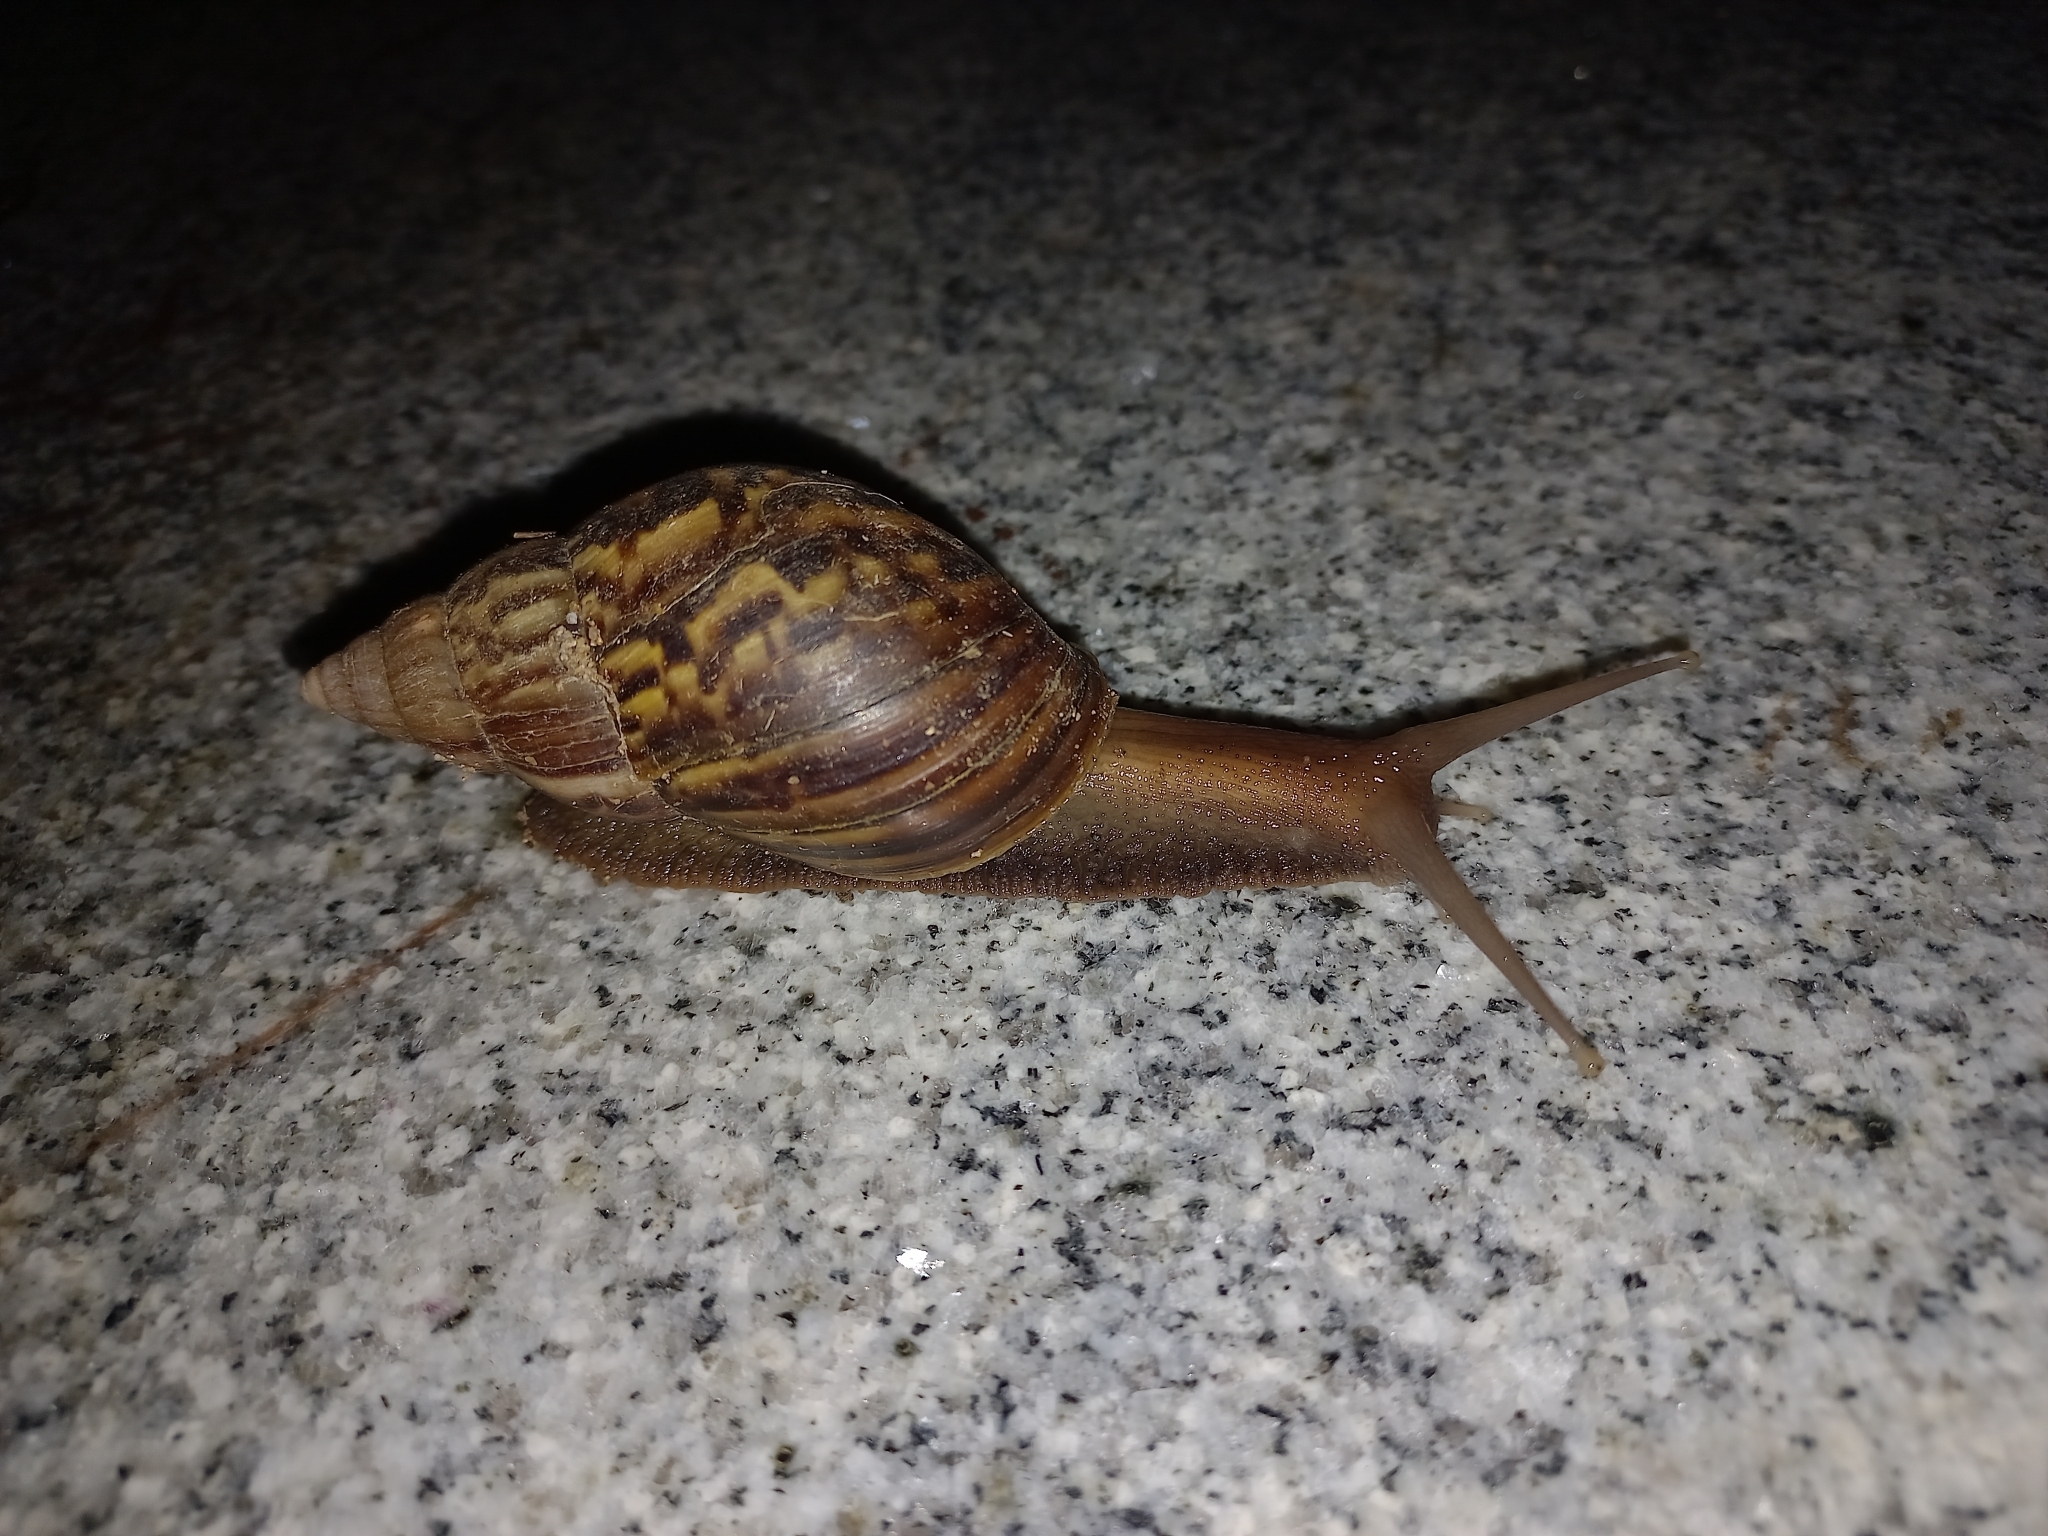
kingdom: Animalia
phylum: Mollusca
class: Gastropoda
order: Stylommatophora
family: Achatinidae
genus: Lissachatina
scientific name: Lissachatina fulica
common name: Giant african snail
